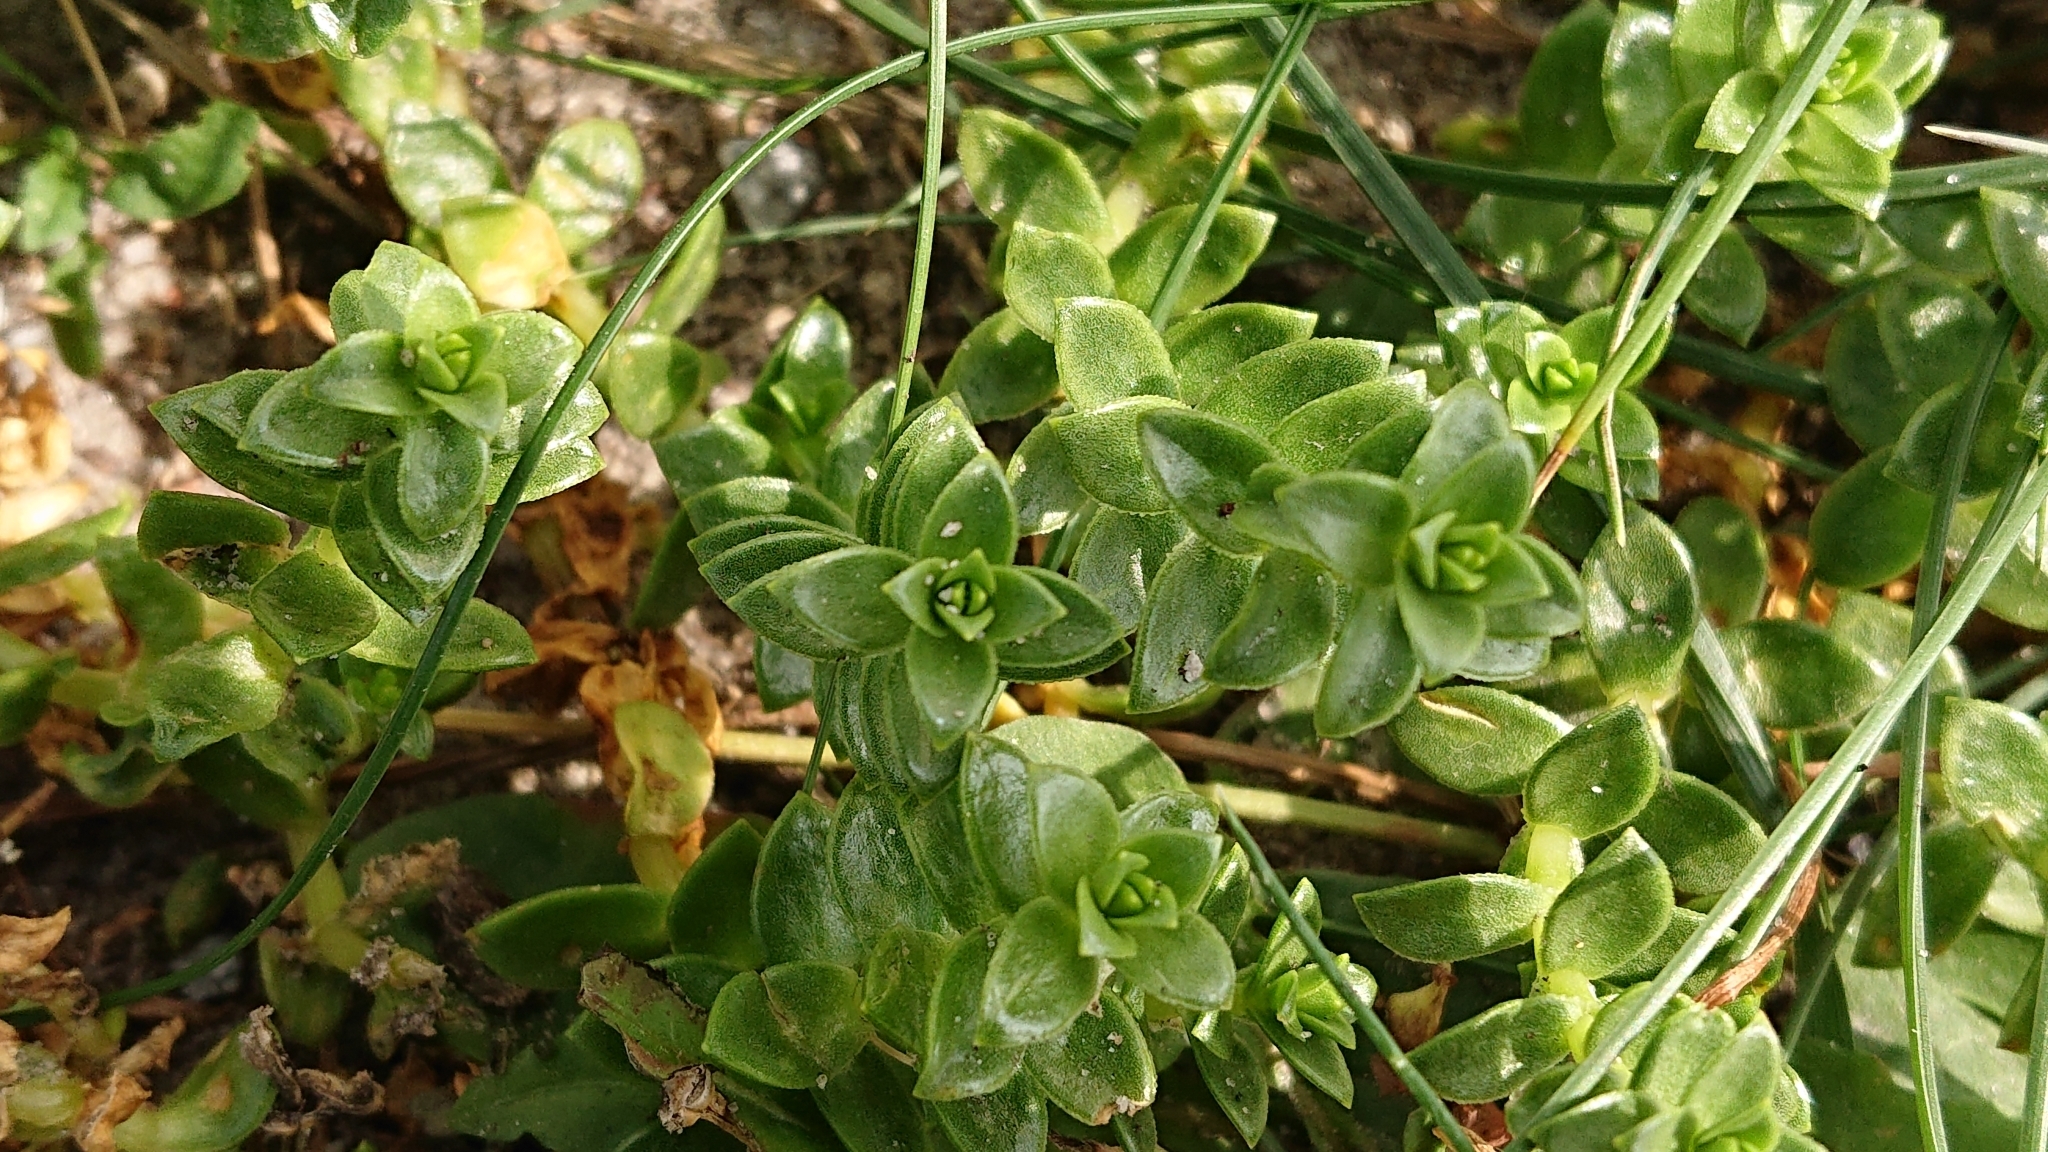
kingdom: Plantae
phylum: Tracheophyta
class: Magnoliopsida
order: Caryophyllales
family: Caryophyllaceae
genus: Honckenya
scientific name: Honckenya peploides
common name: Sea sandwort
